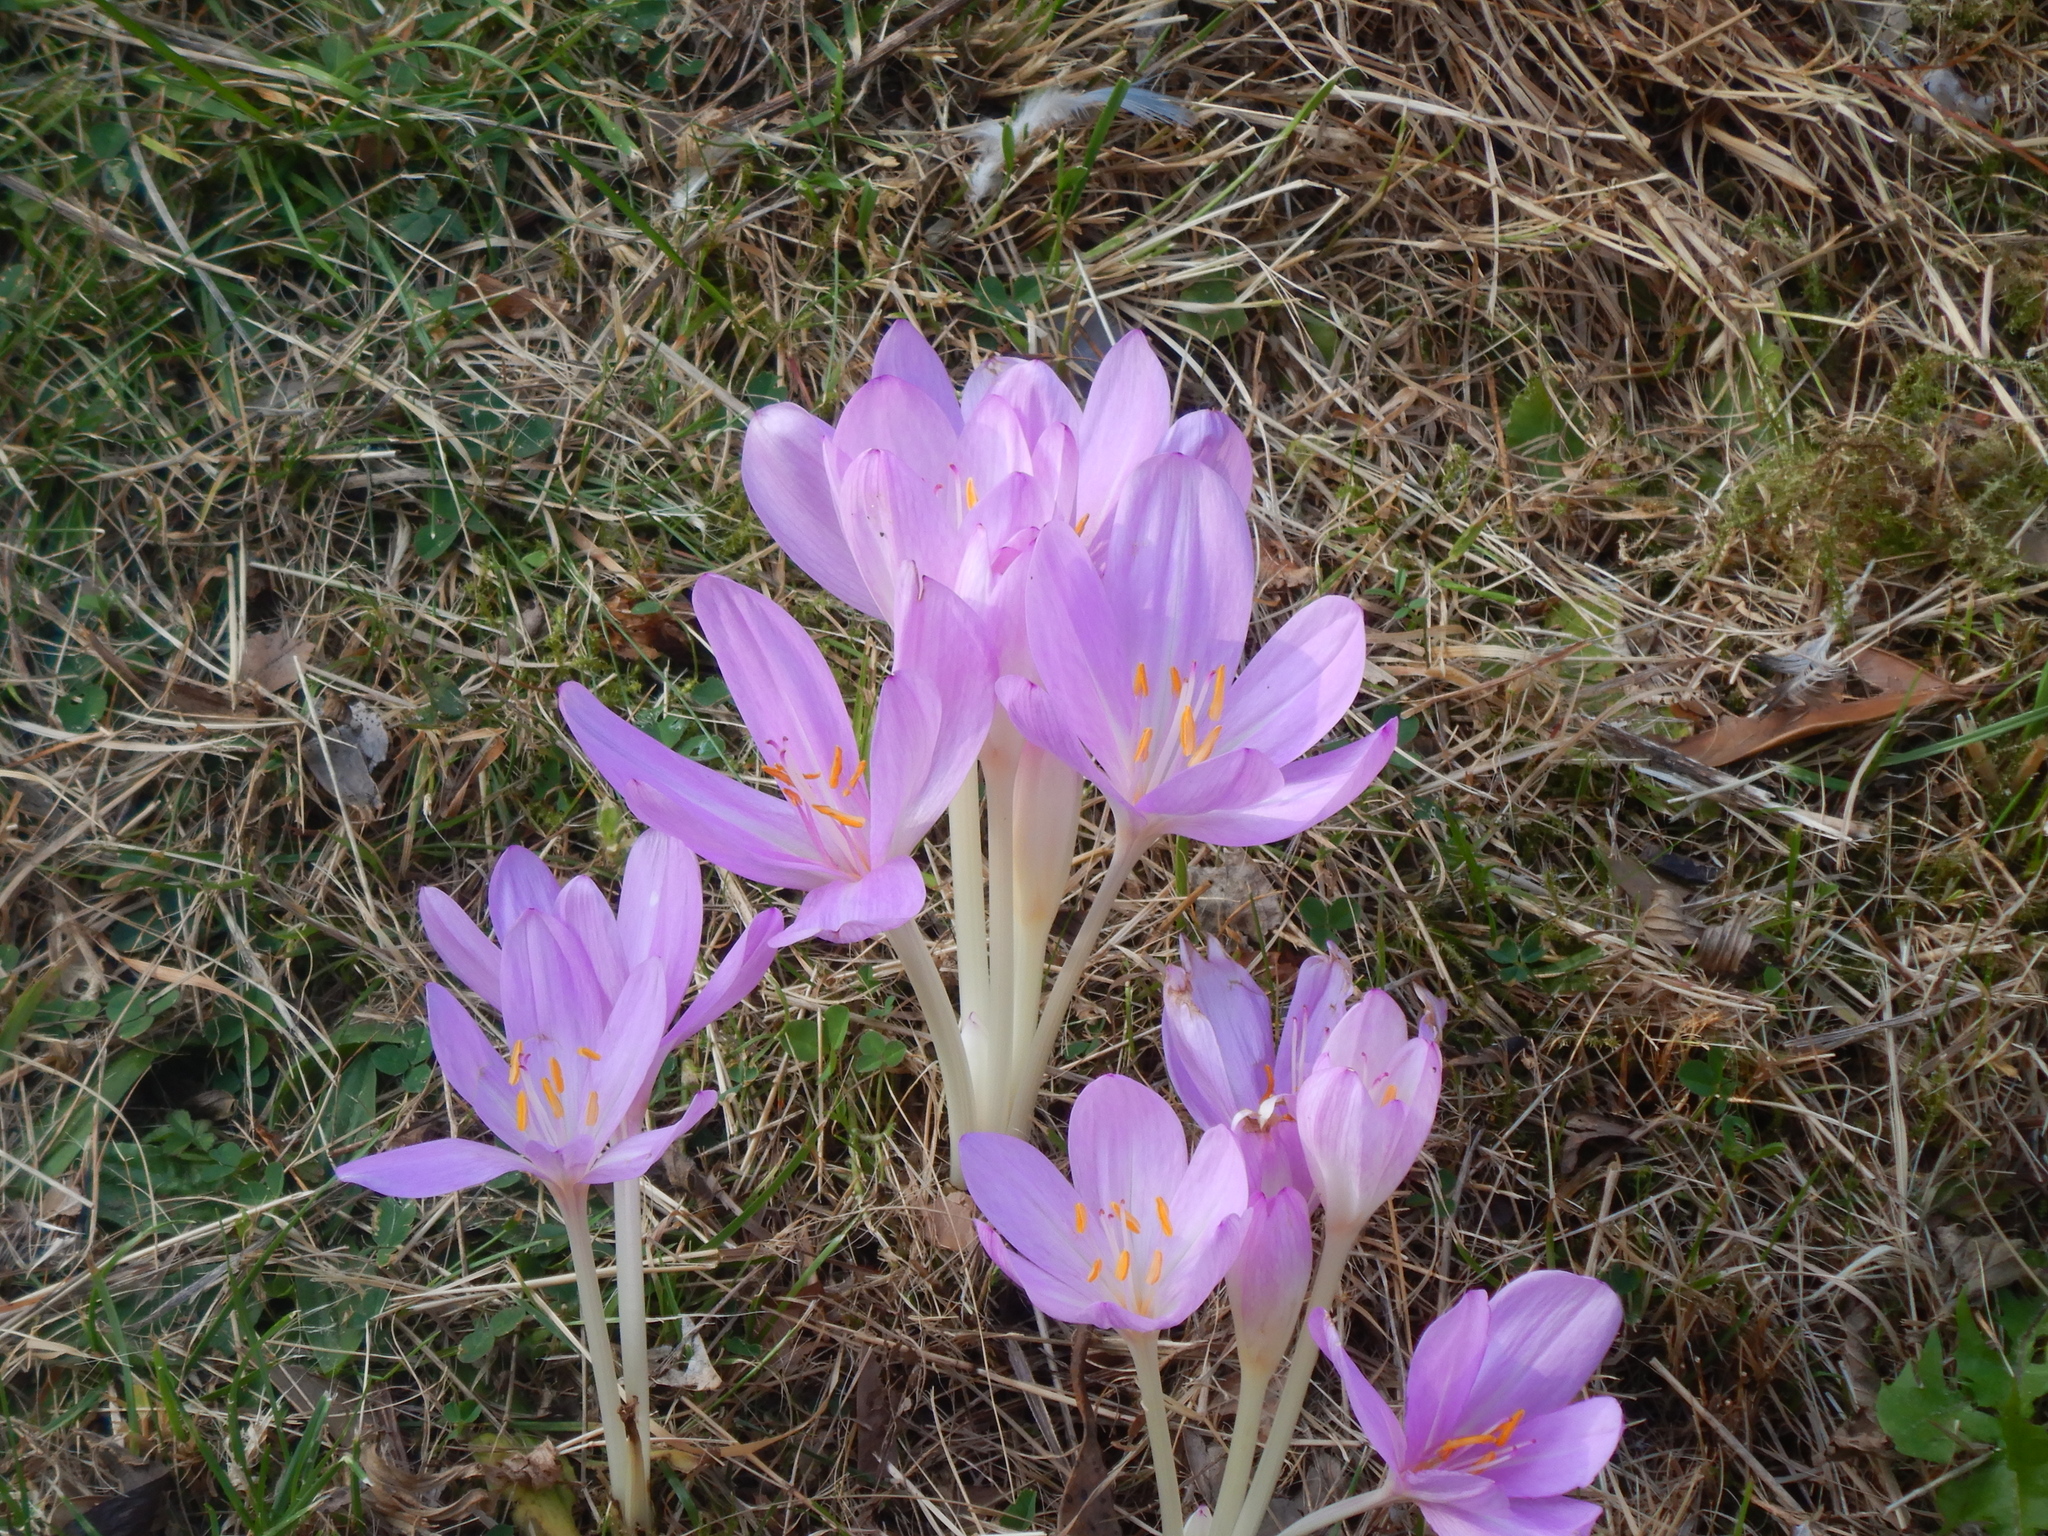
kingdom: Plantae
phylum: Tracheophyta
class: Liliopsida
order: Liliales
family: Colchicaceae
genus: Colchicum
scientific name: Colchicum byzantinum
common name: False autumn crocus
